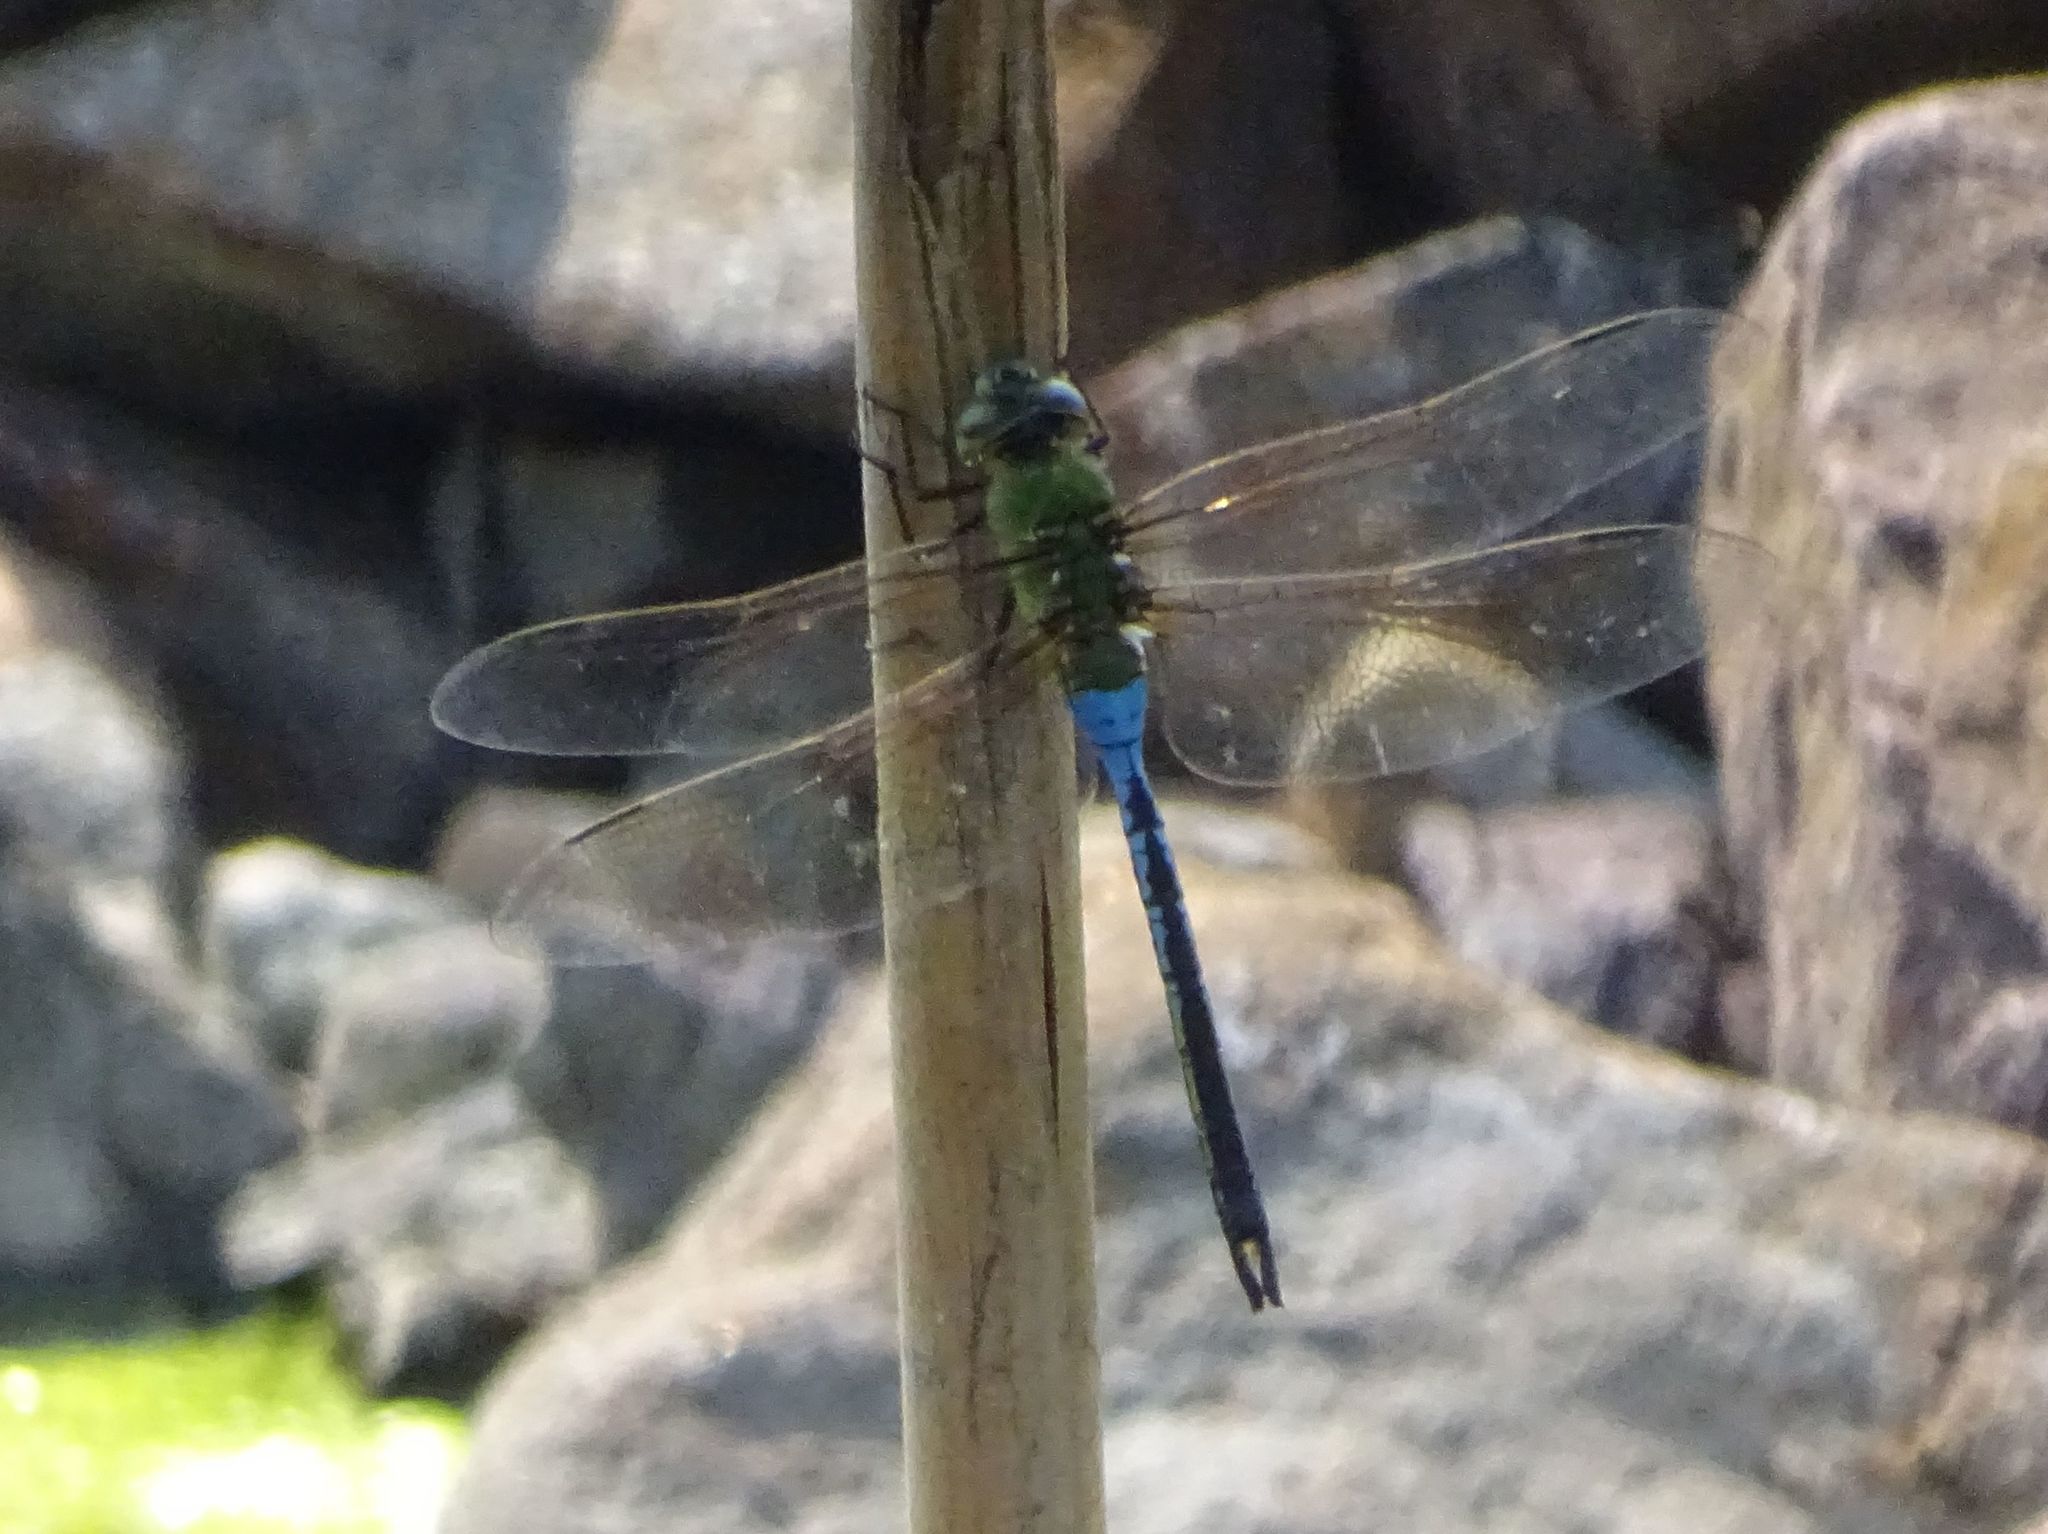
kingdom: Animalia
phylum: Arthropoda
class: Insecta
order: Odonata
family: Aeshnidae
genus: Anax
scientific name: Anax junius
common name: Common green darner
